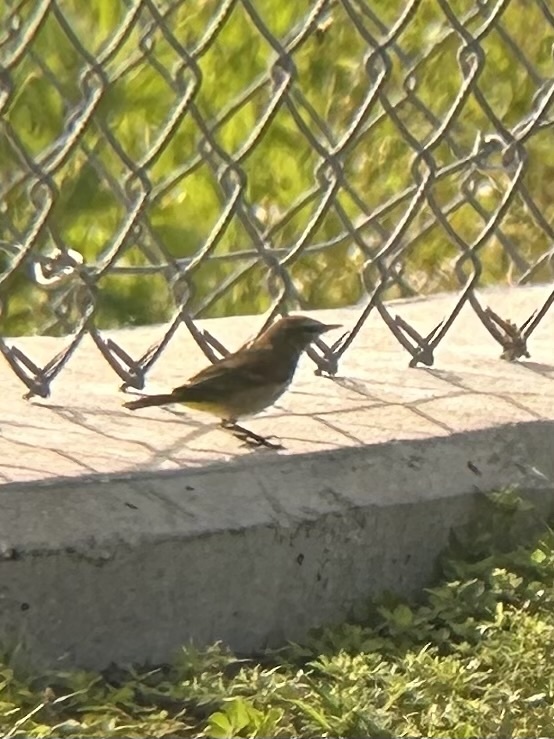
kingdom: Animalia
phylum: Chordata
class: Aves
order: Passeriformes
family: Parulidae
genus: Setophaga
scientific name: Setophaga palmarum
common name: Palm warbler
